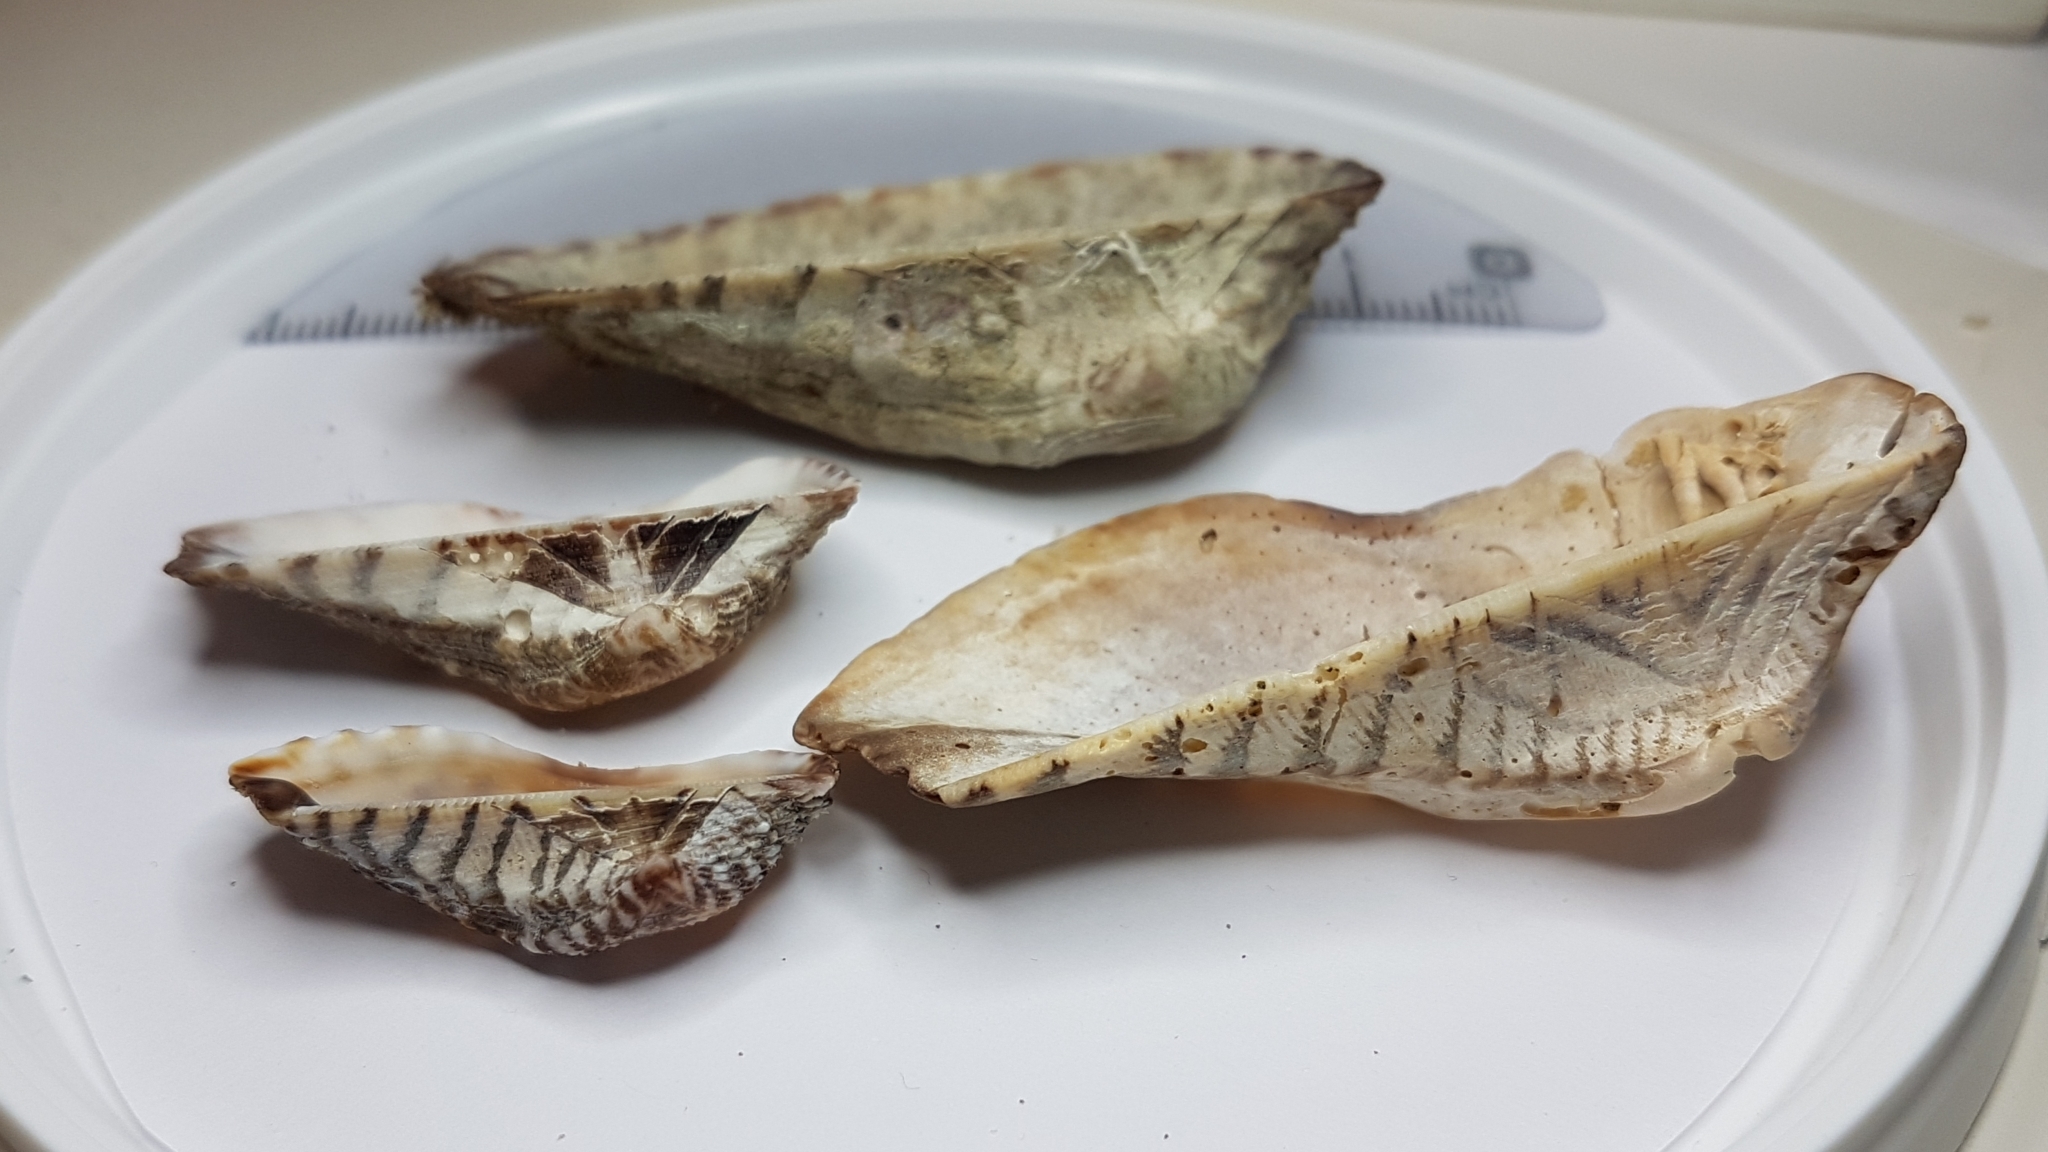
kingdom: Animalia
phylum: Mollusca
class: Bivalvia
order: Arcida
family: Arcidae
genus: Arca
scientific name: Arca noae
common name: Noah's arch
